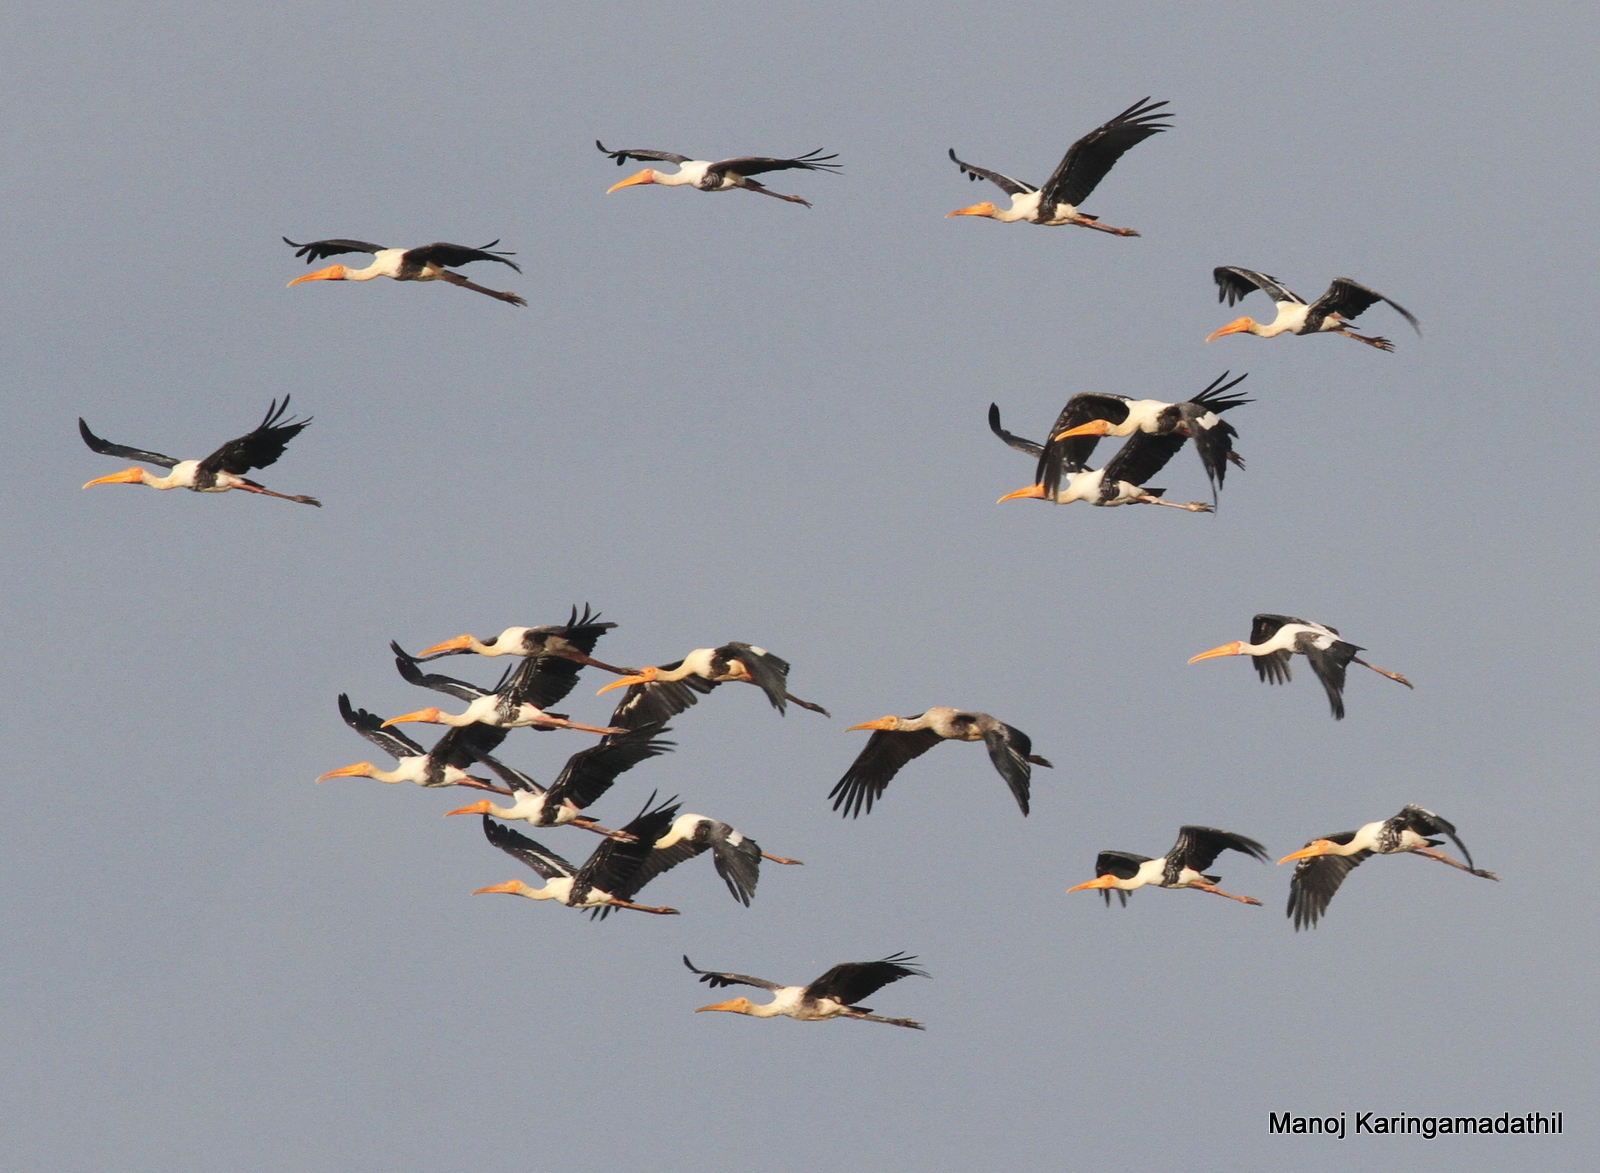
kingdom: Animalia
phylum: Chordata
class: Aves
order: Ciconiiformes
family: Ciconiidae
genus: Mycteria
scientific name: Mycteria leucocephala
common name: Painted stork
